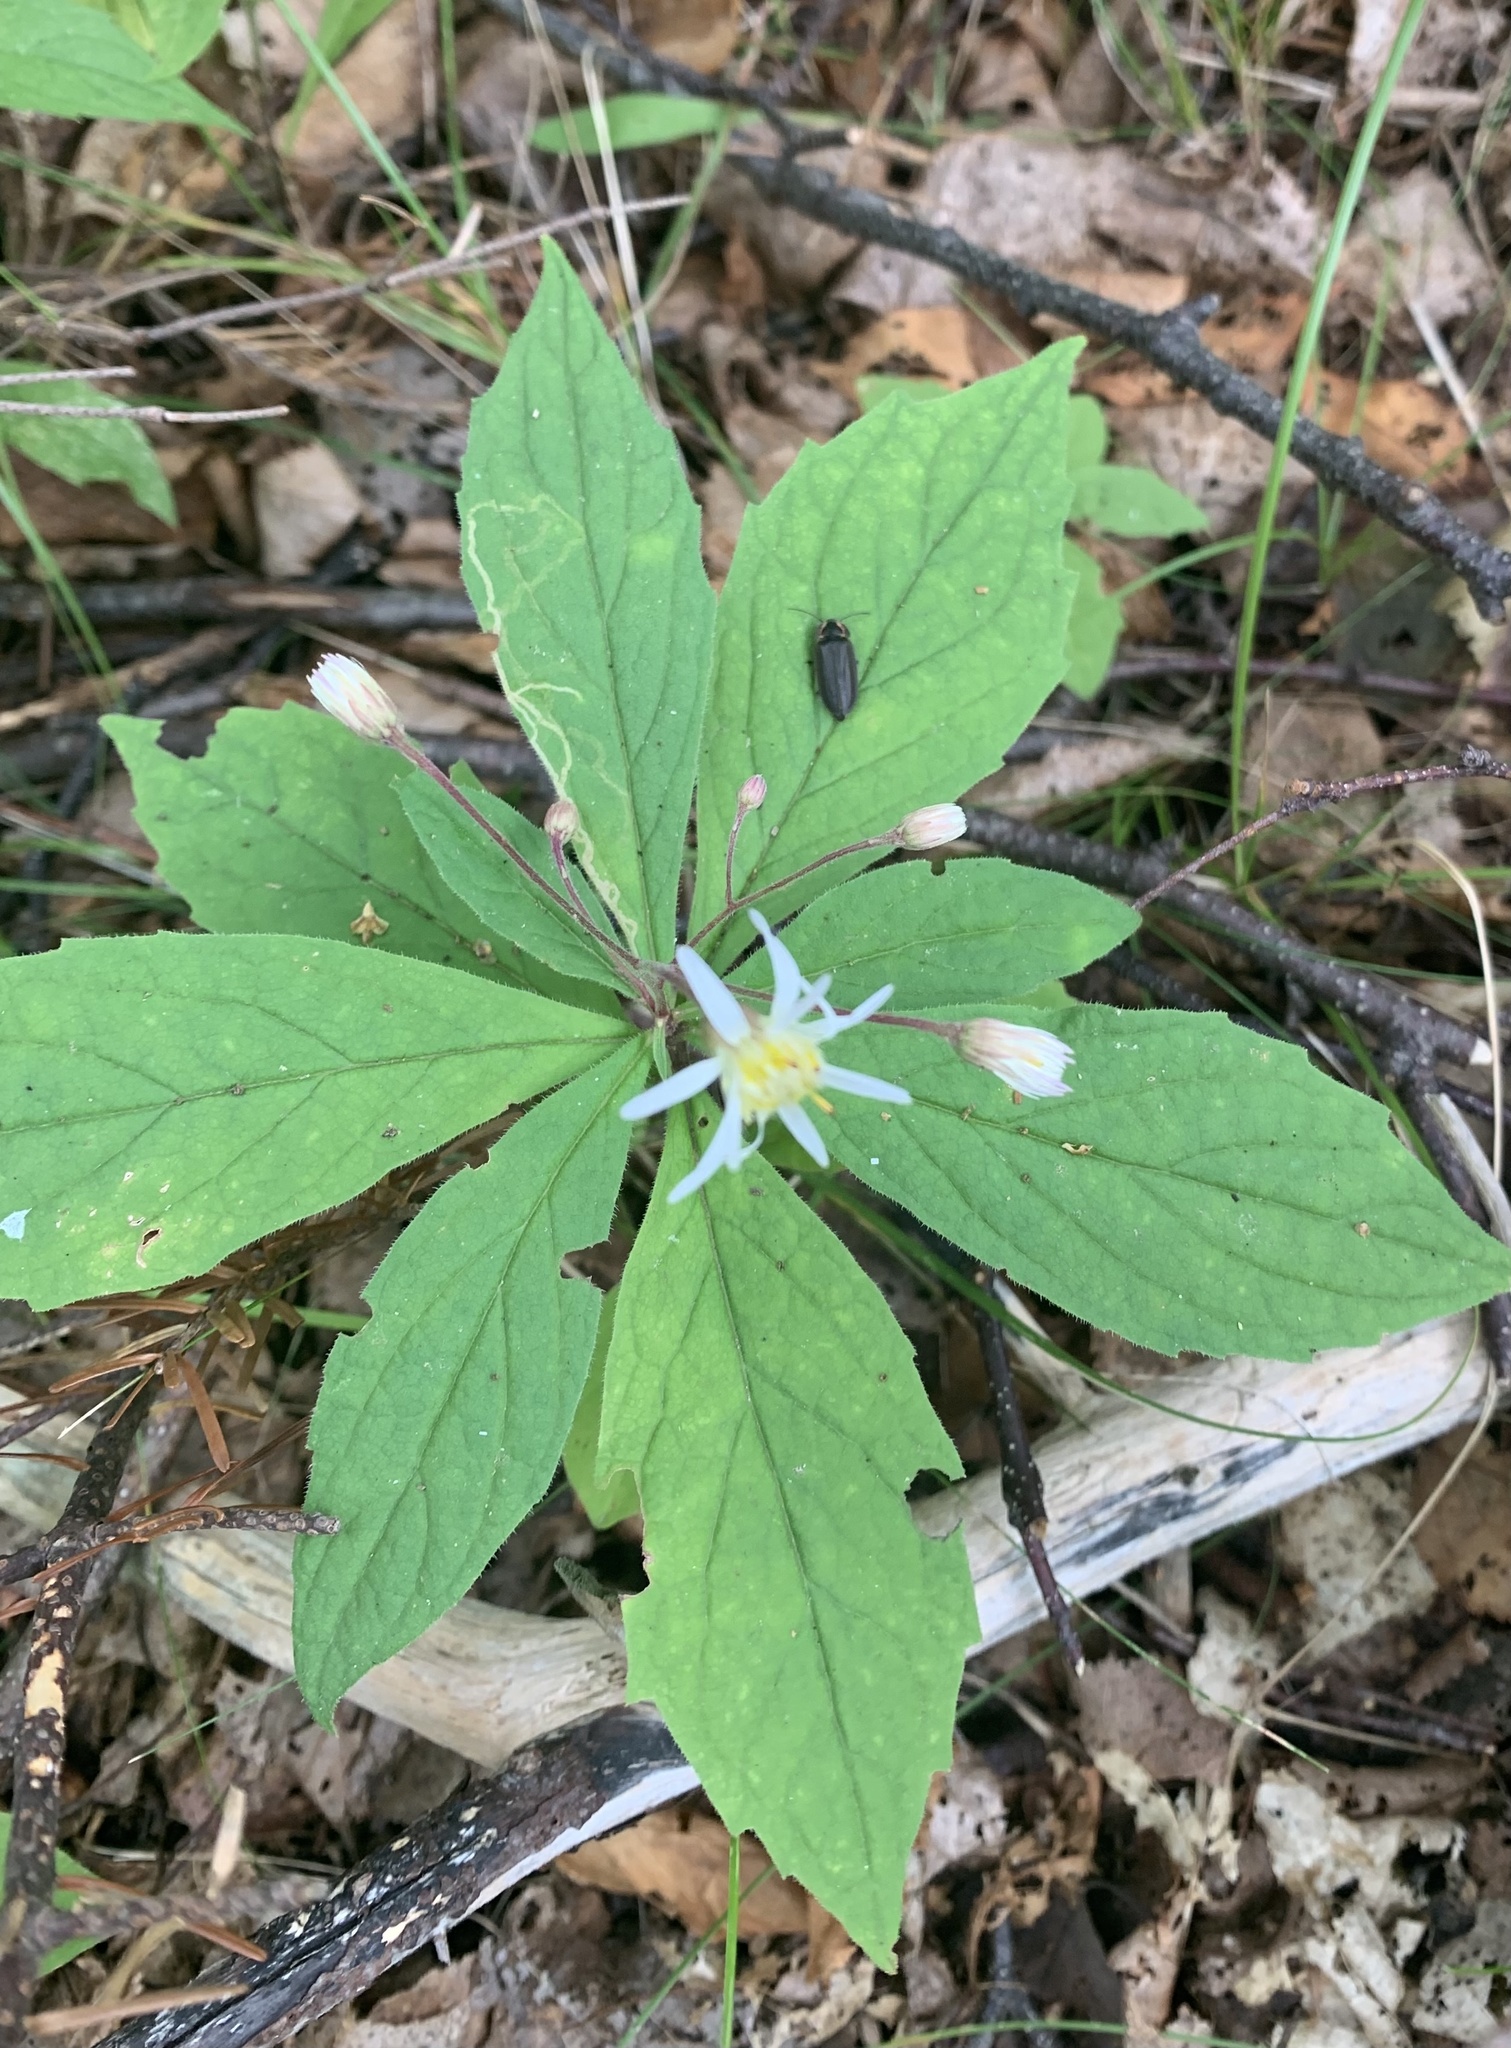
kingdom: Plantae
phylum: Tracheophyta
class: Magnoliopsida
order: Asterales
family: Asteraceae
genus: Oclemena
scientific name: Oclemena acuminata
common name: Mountain aster
